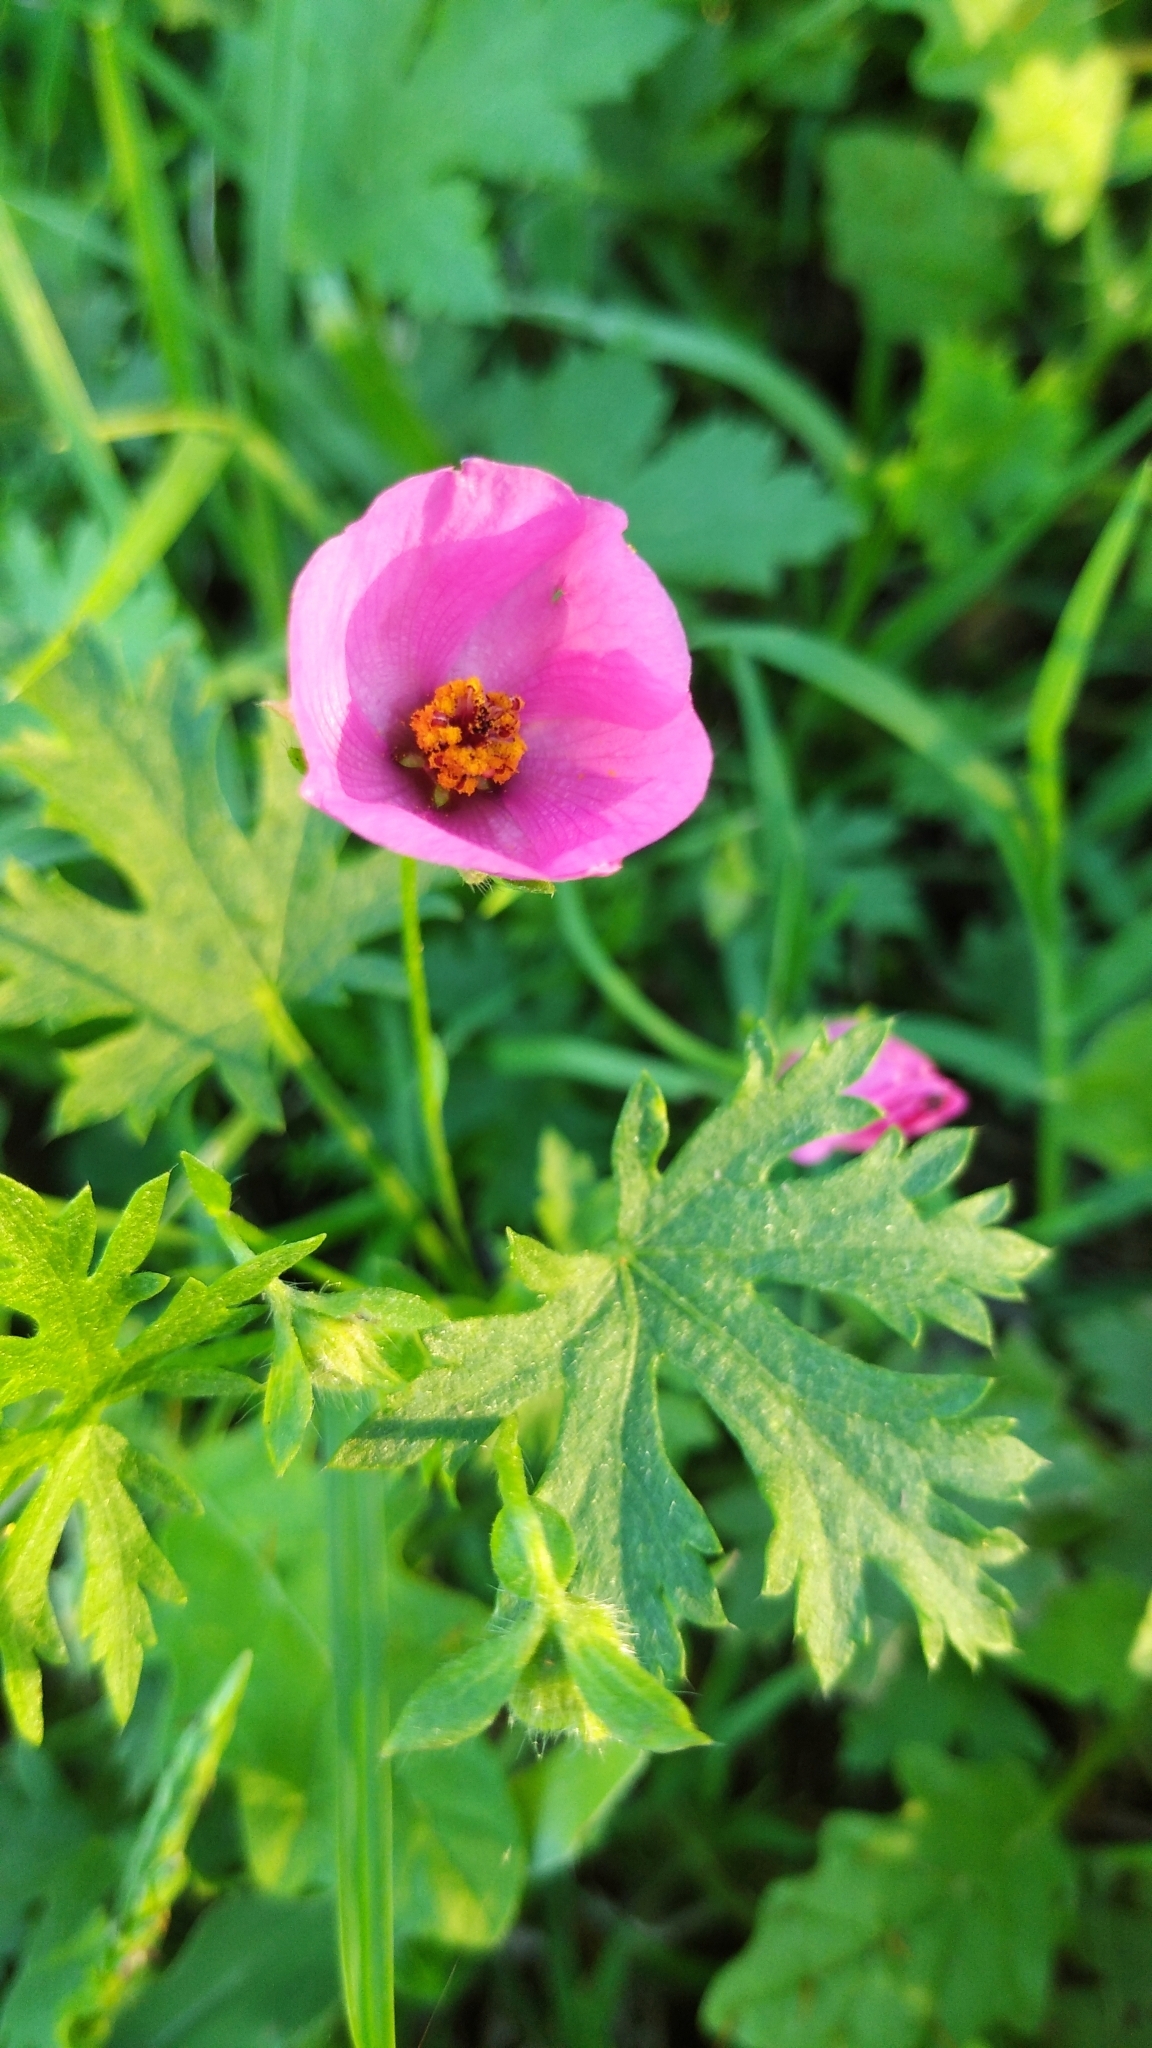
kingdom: Plantae
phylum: Tracheophyta
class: Magnoliopsida
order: Malvales
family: Malvaceae
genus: Modiolastrum
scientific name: Modiolastrum gilliesii
